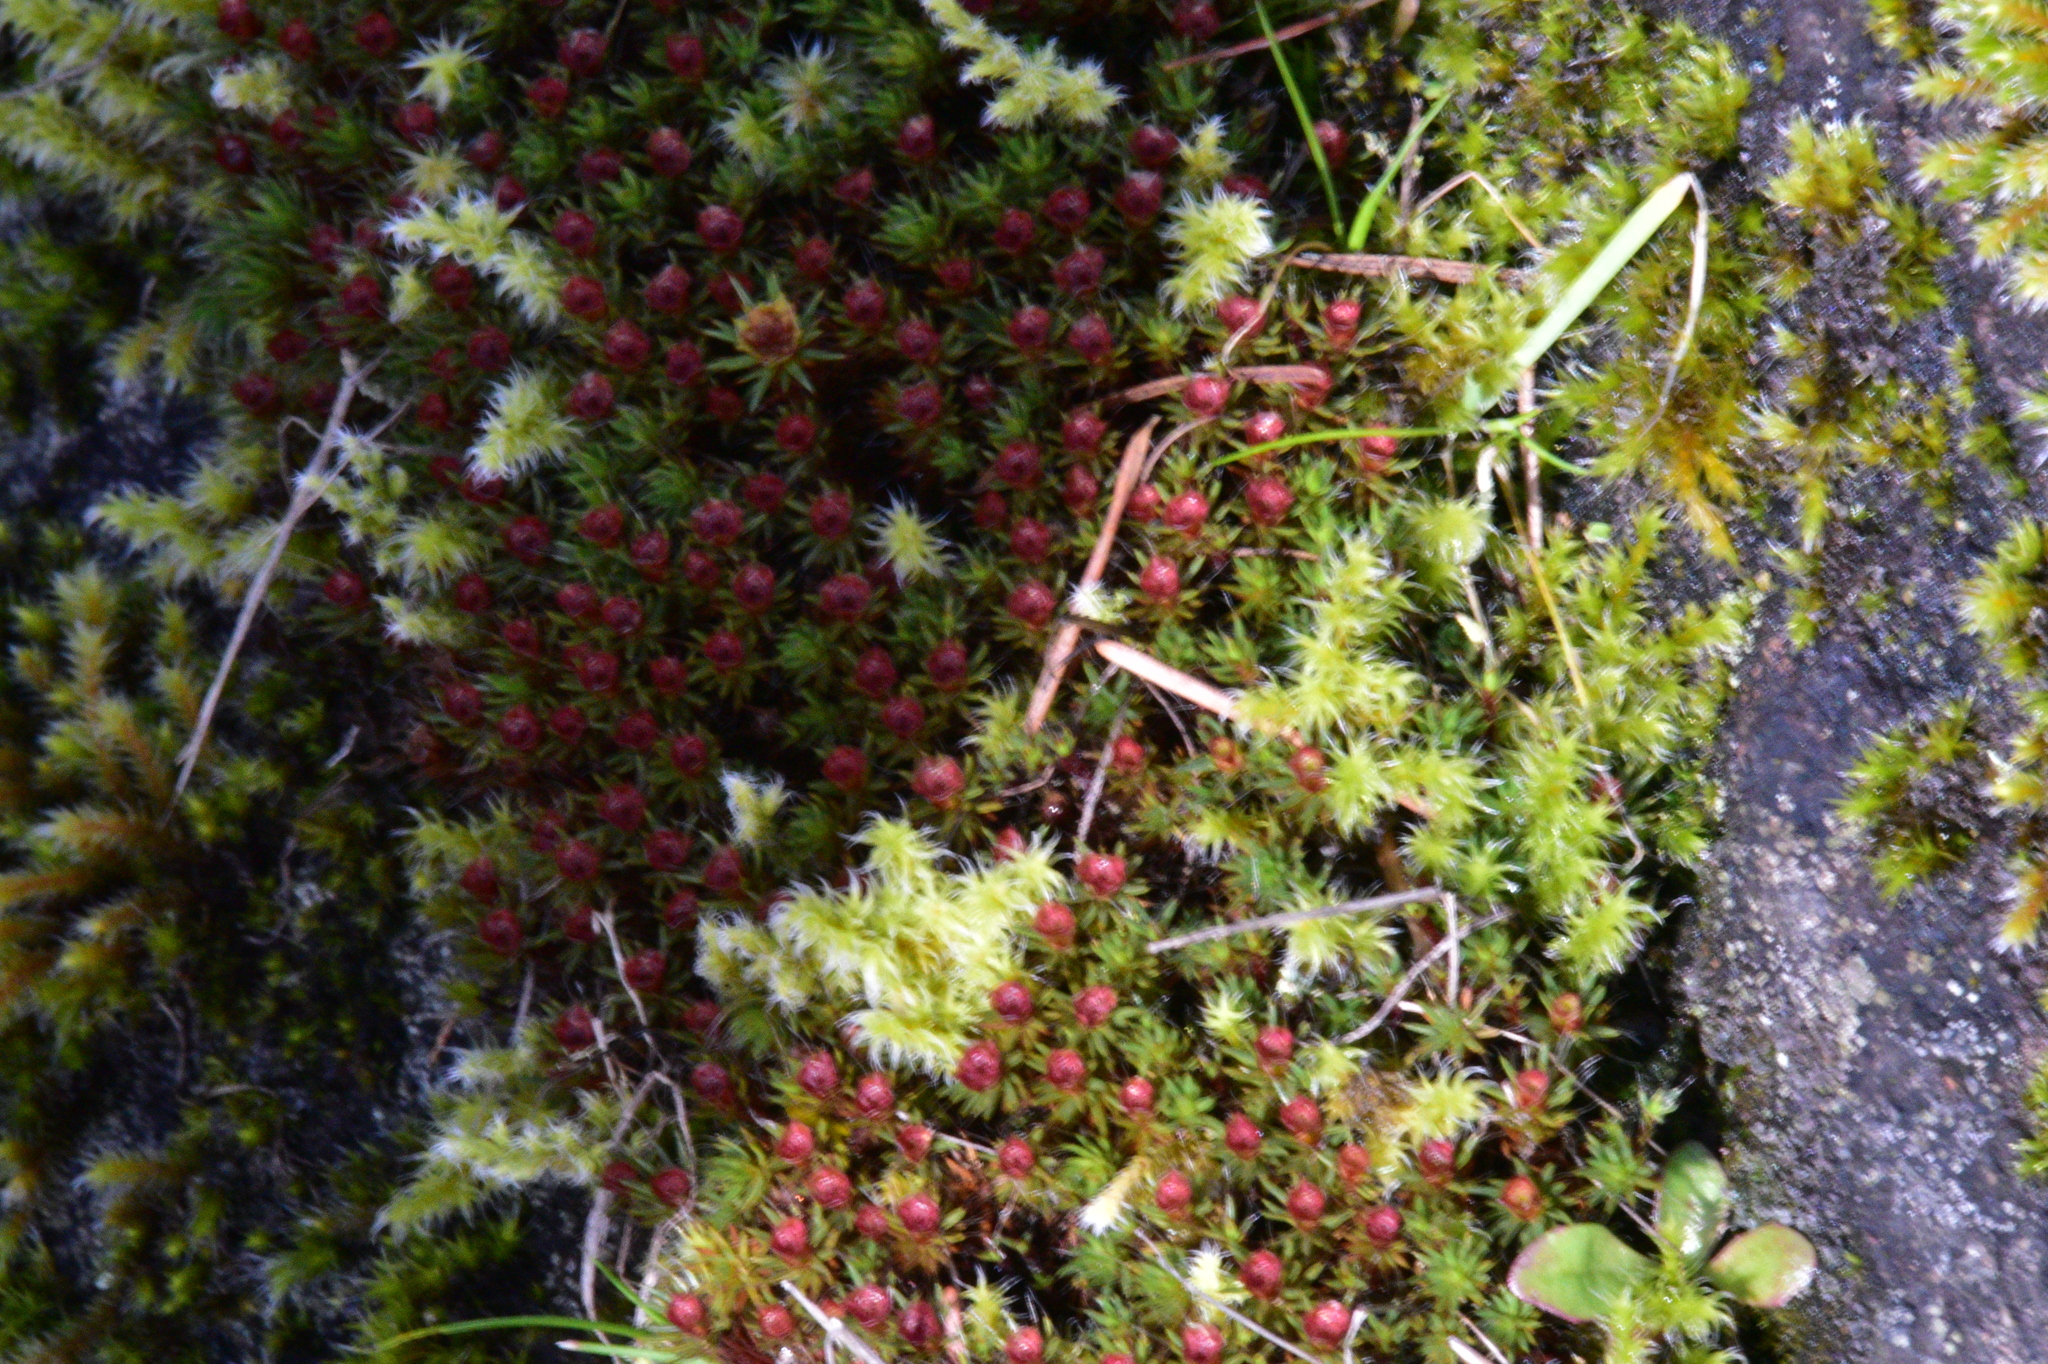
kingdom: Plantae
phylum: Bryophyta
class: Polytrichopsida
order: Polytrichales
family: Polytrichaceae
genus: Polytrichum
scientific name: Polytrichum piliferum
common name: Bristly haircap
